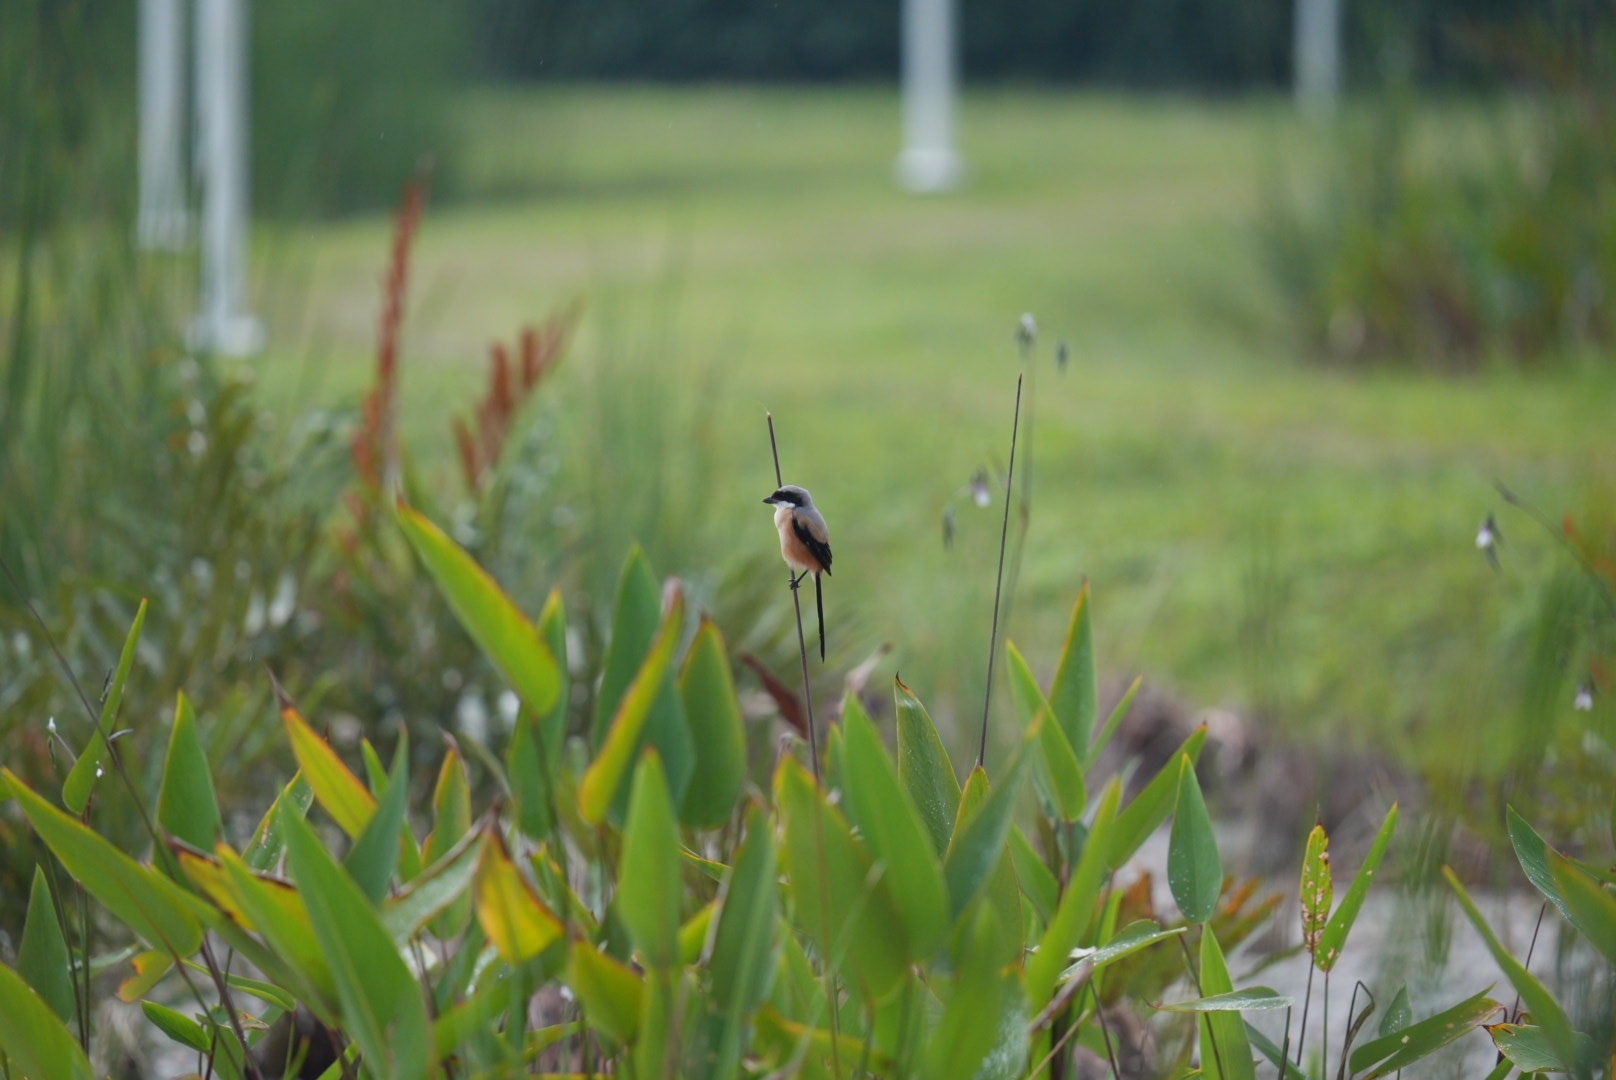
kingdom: Animalia
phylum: Chordata
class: Aves
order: Passeriformes
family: Laniidae
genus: Lanius
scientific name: Lanius schach
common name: Long-tailed shrike
